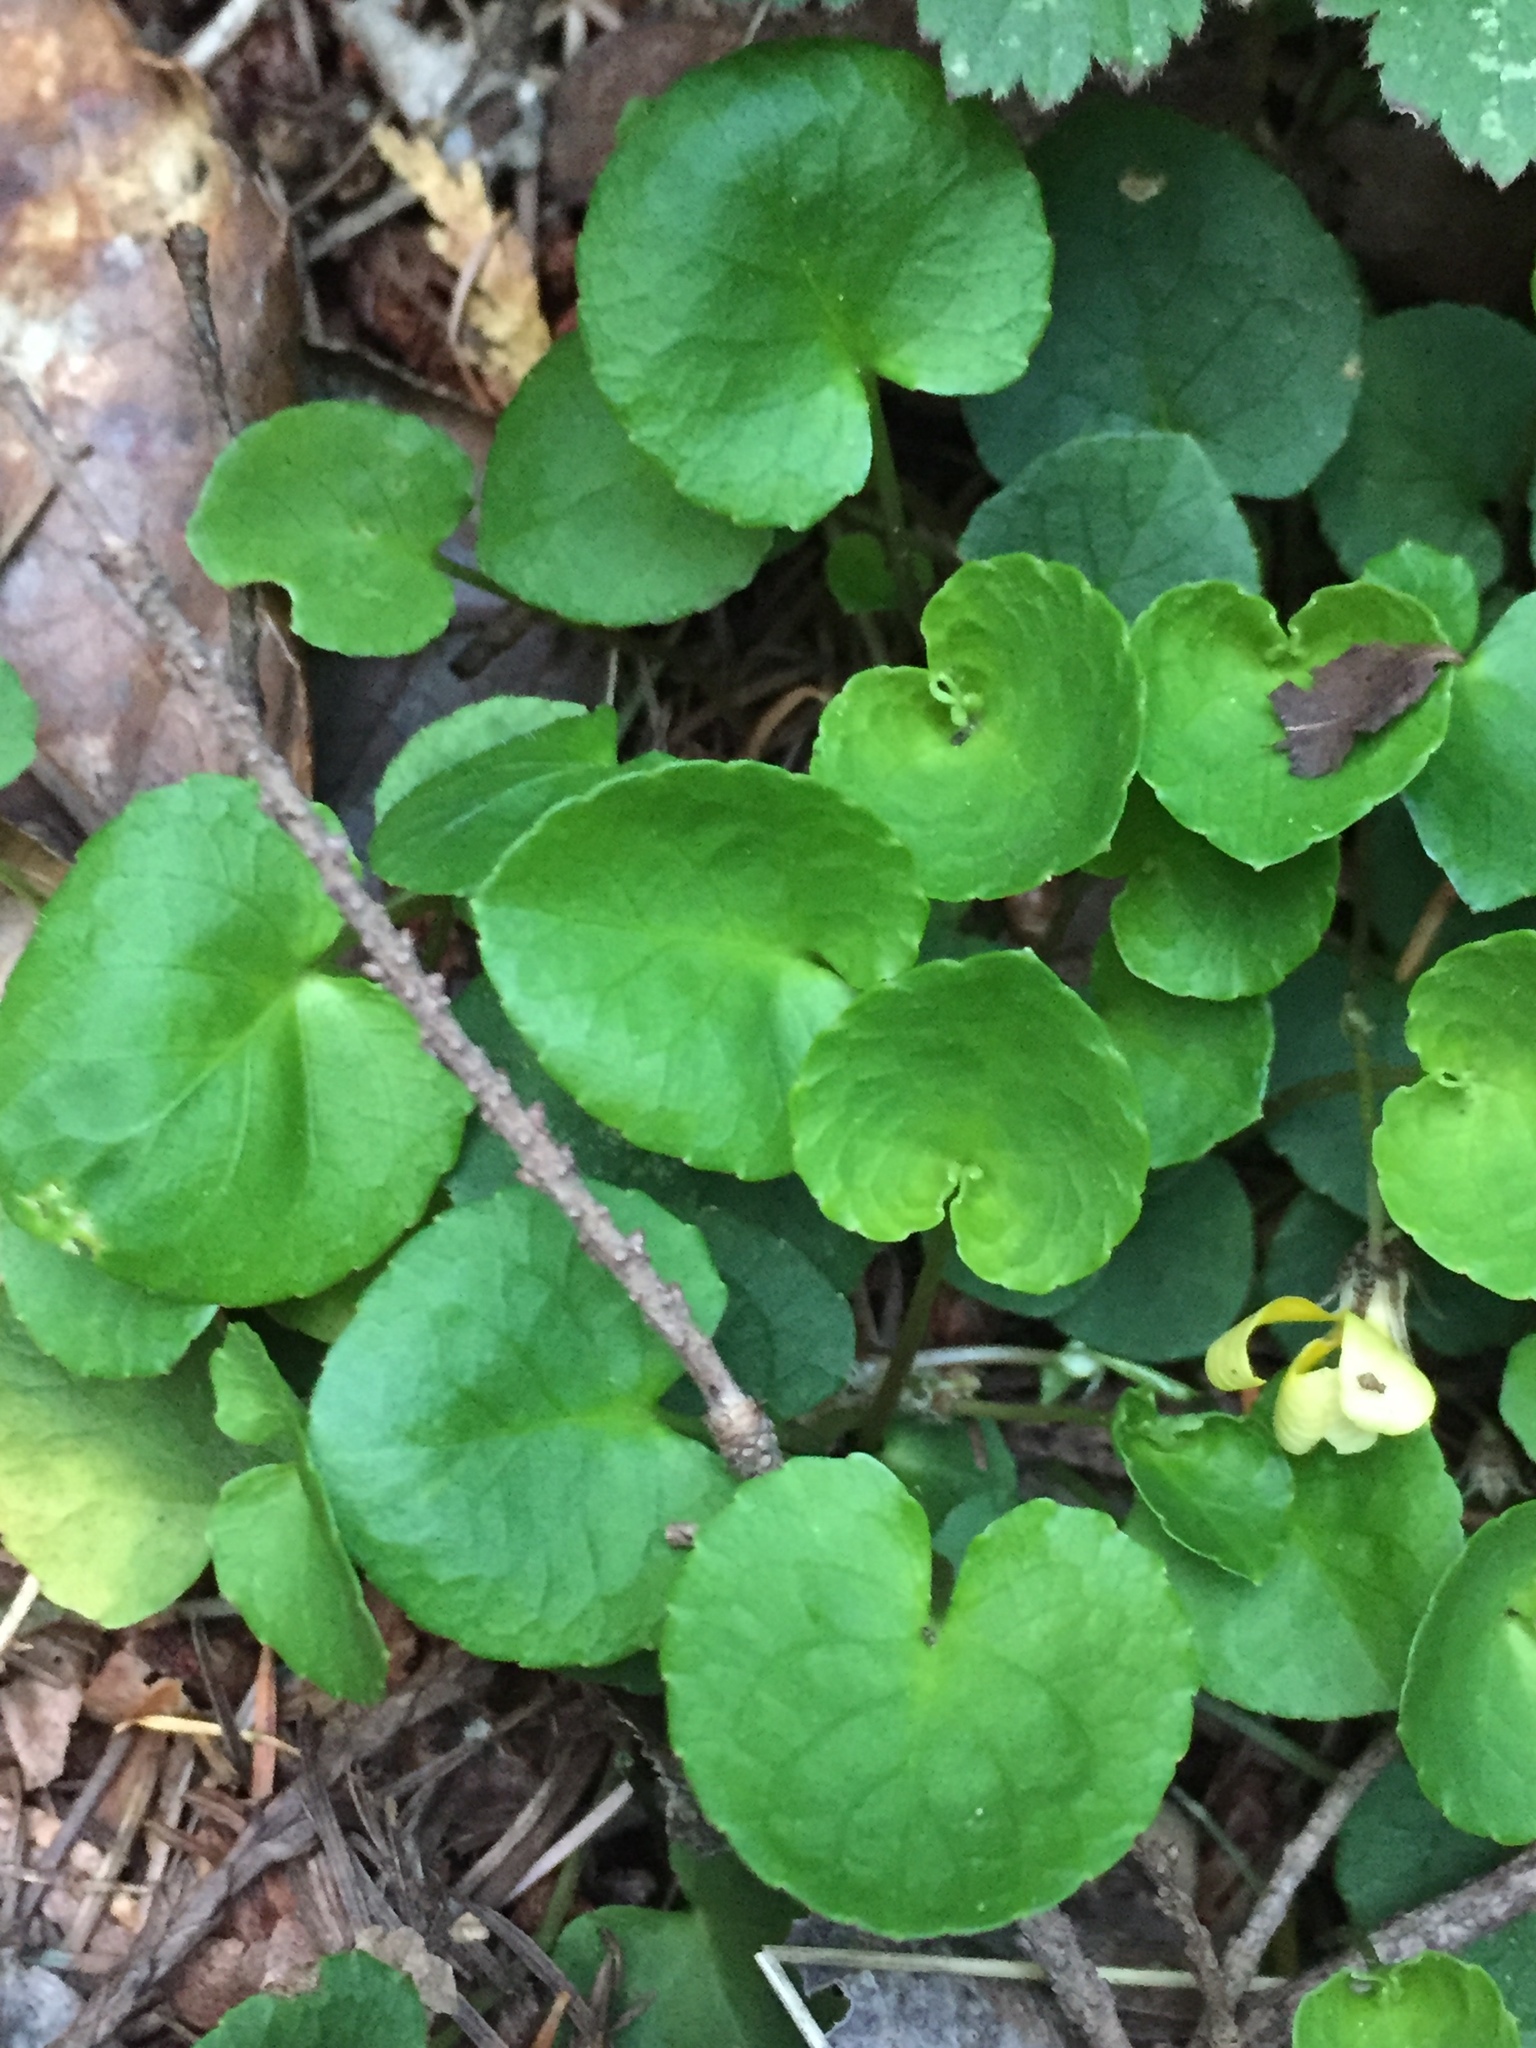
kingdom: Plantae
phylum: Tracheophyta
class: Magnoliopsida
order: Malpighiales
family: Violaceae
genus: Viola
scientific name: Viola sempervirens
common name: Evergreen violet
